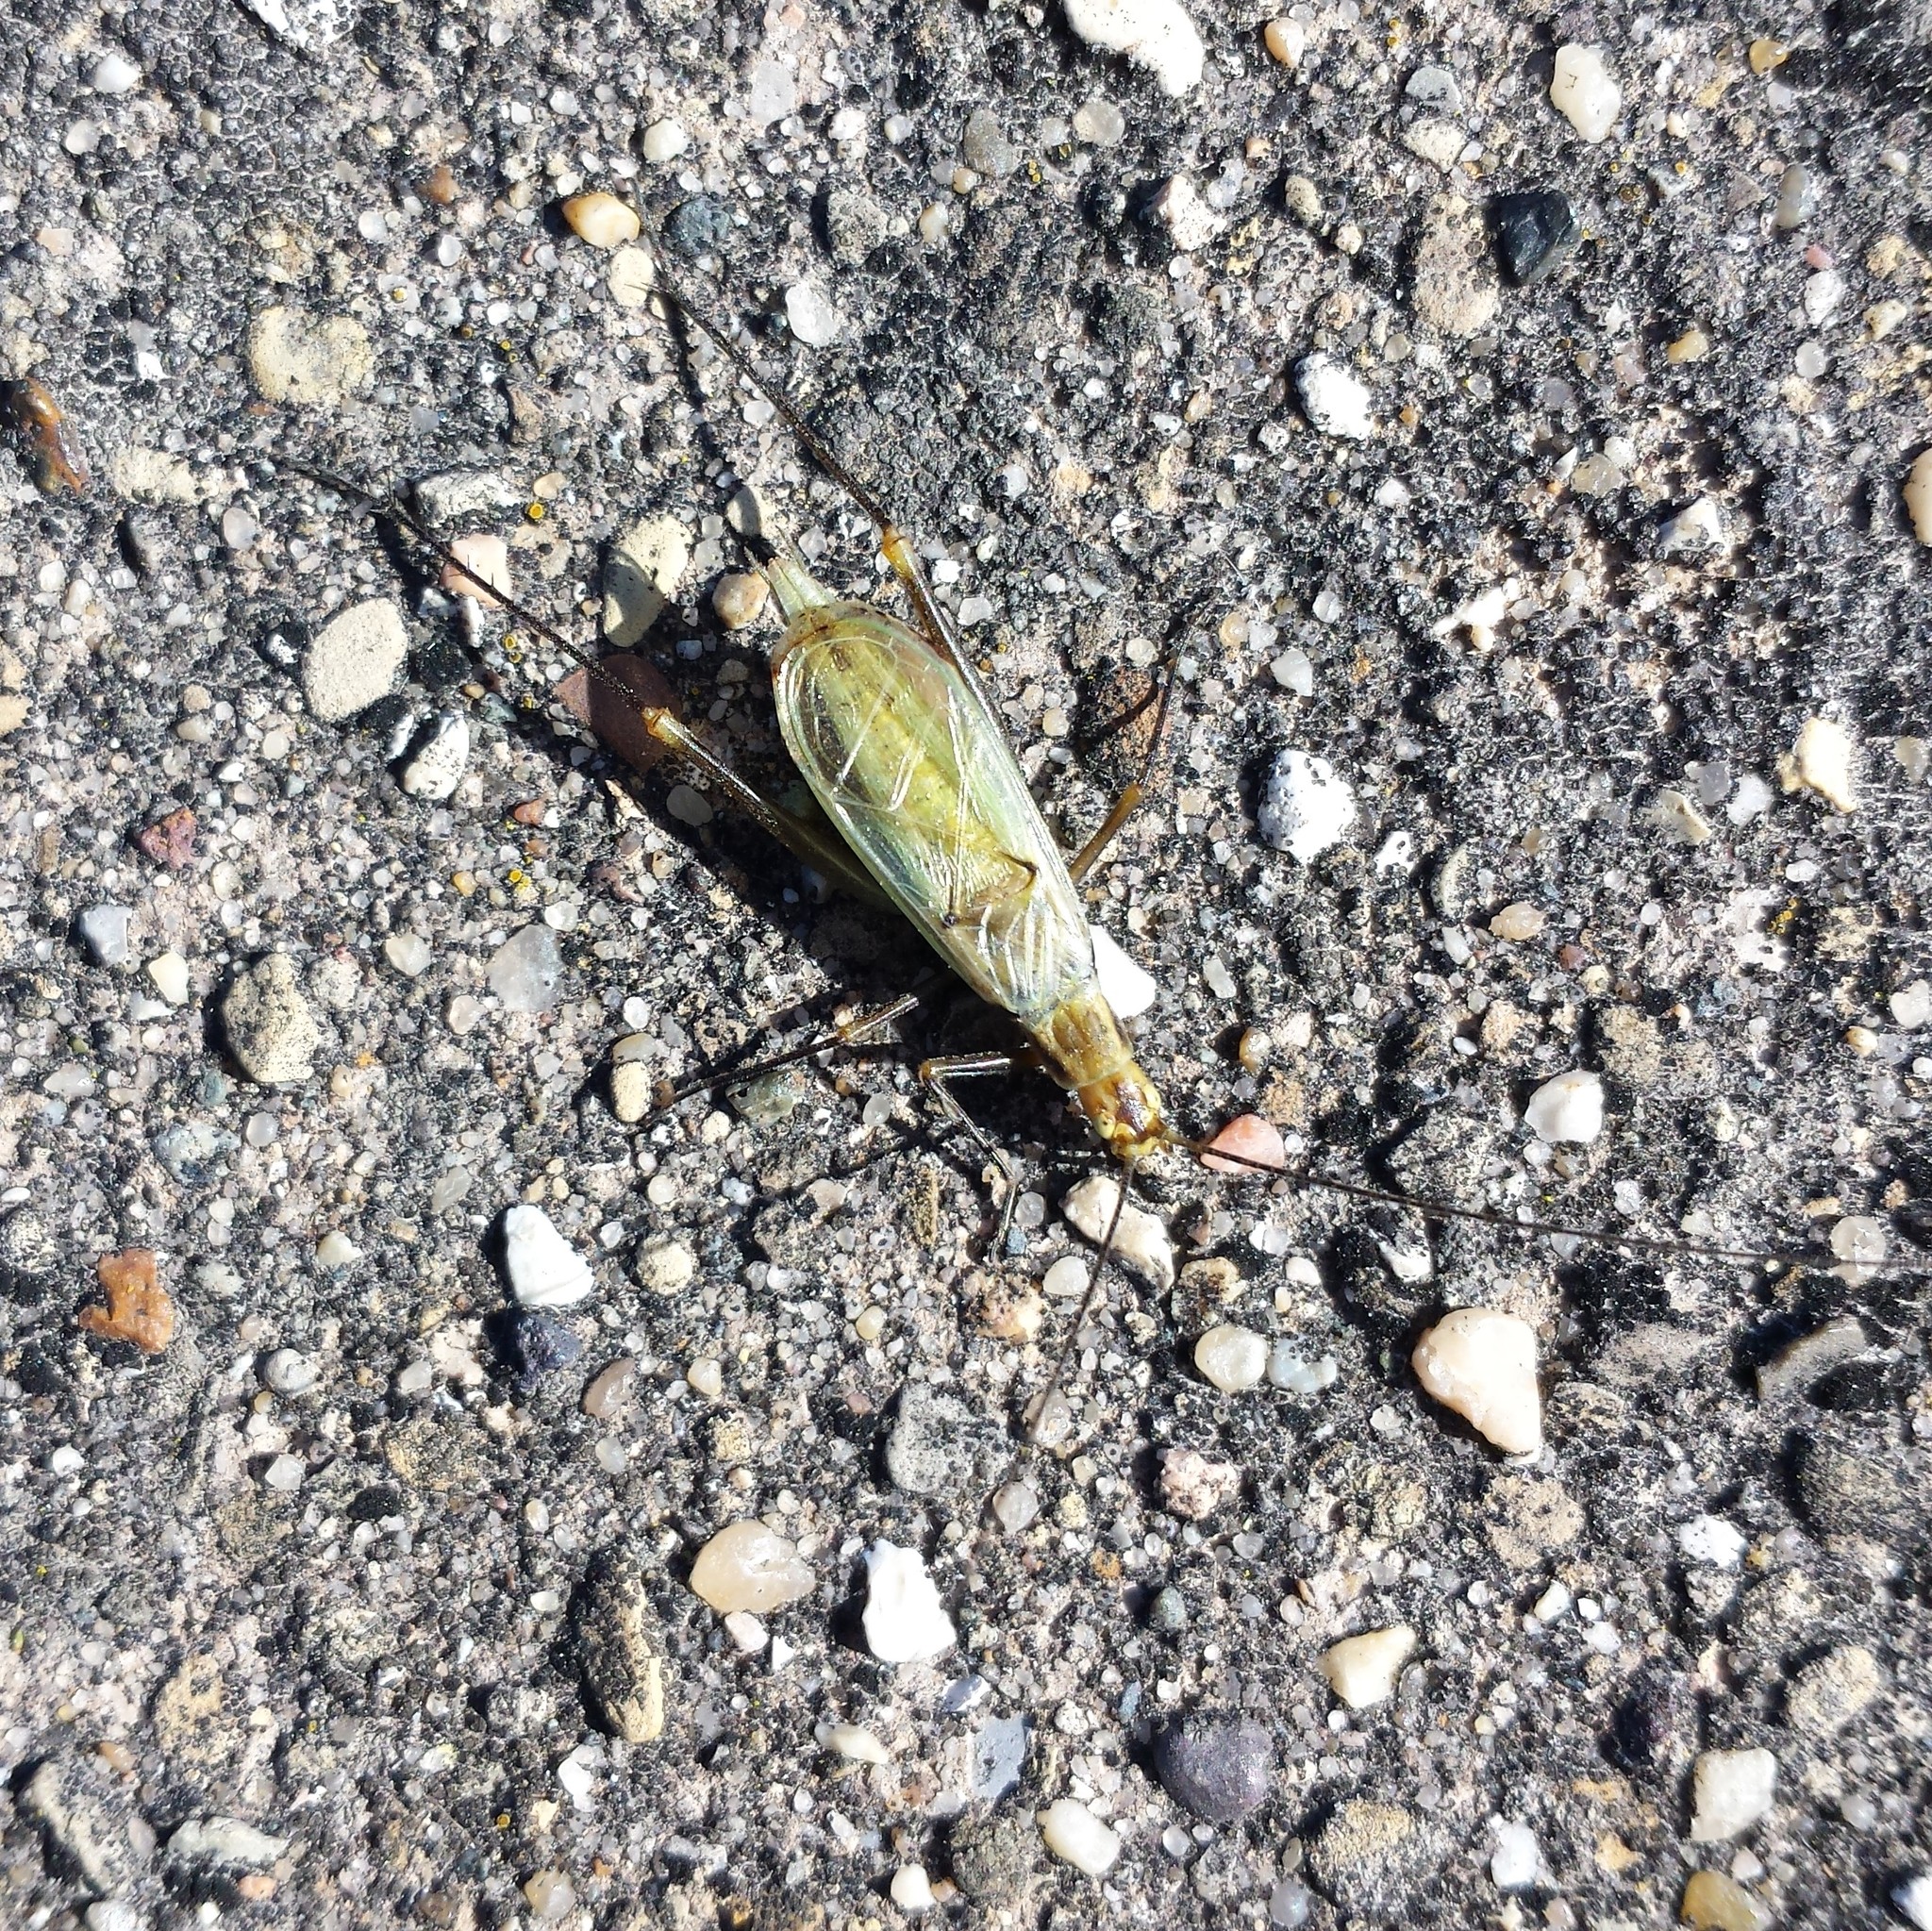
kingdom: Animalia
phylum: Arthropoda
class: Insecta
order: Orthoptera
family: Gryllidae
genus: Oecanthus
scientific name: Oecanthus forbesi
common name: Forbes’s tree cricket
